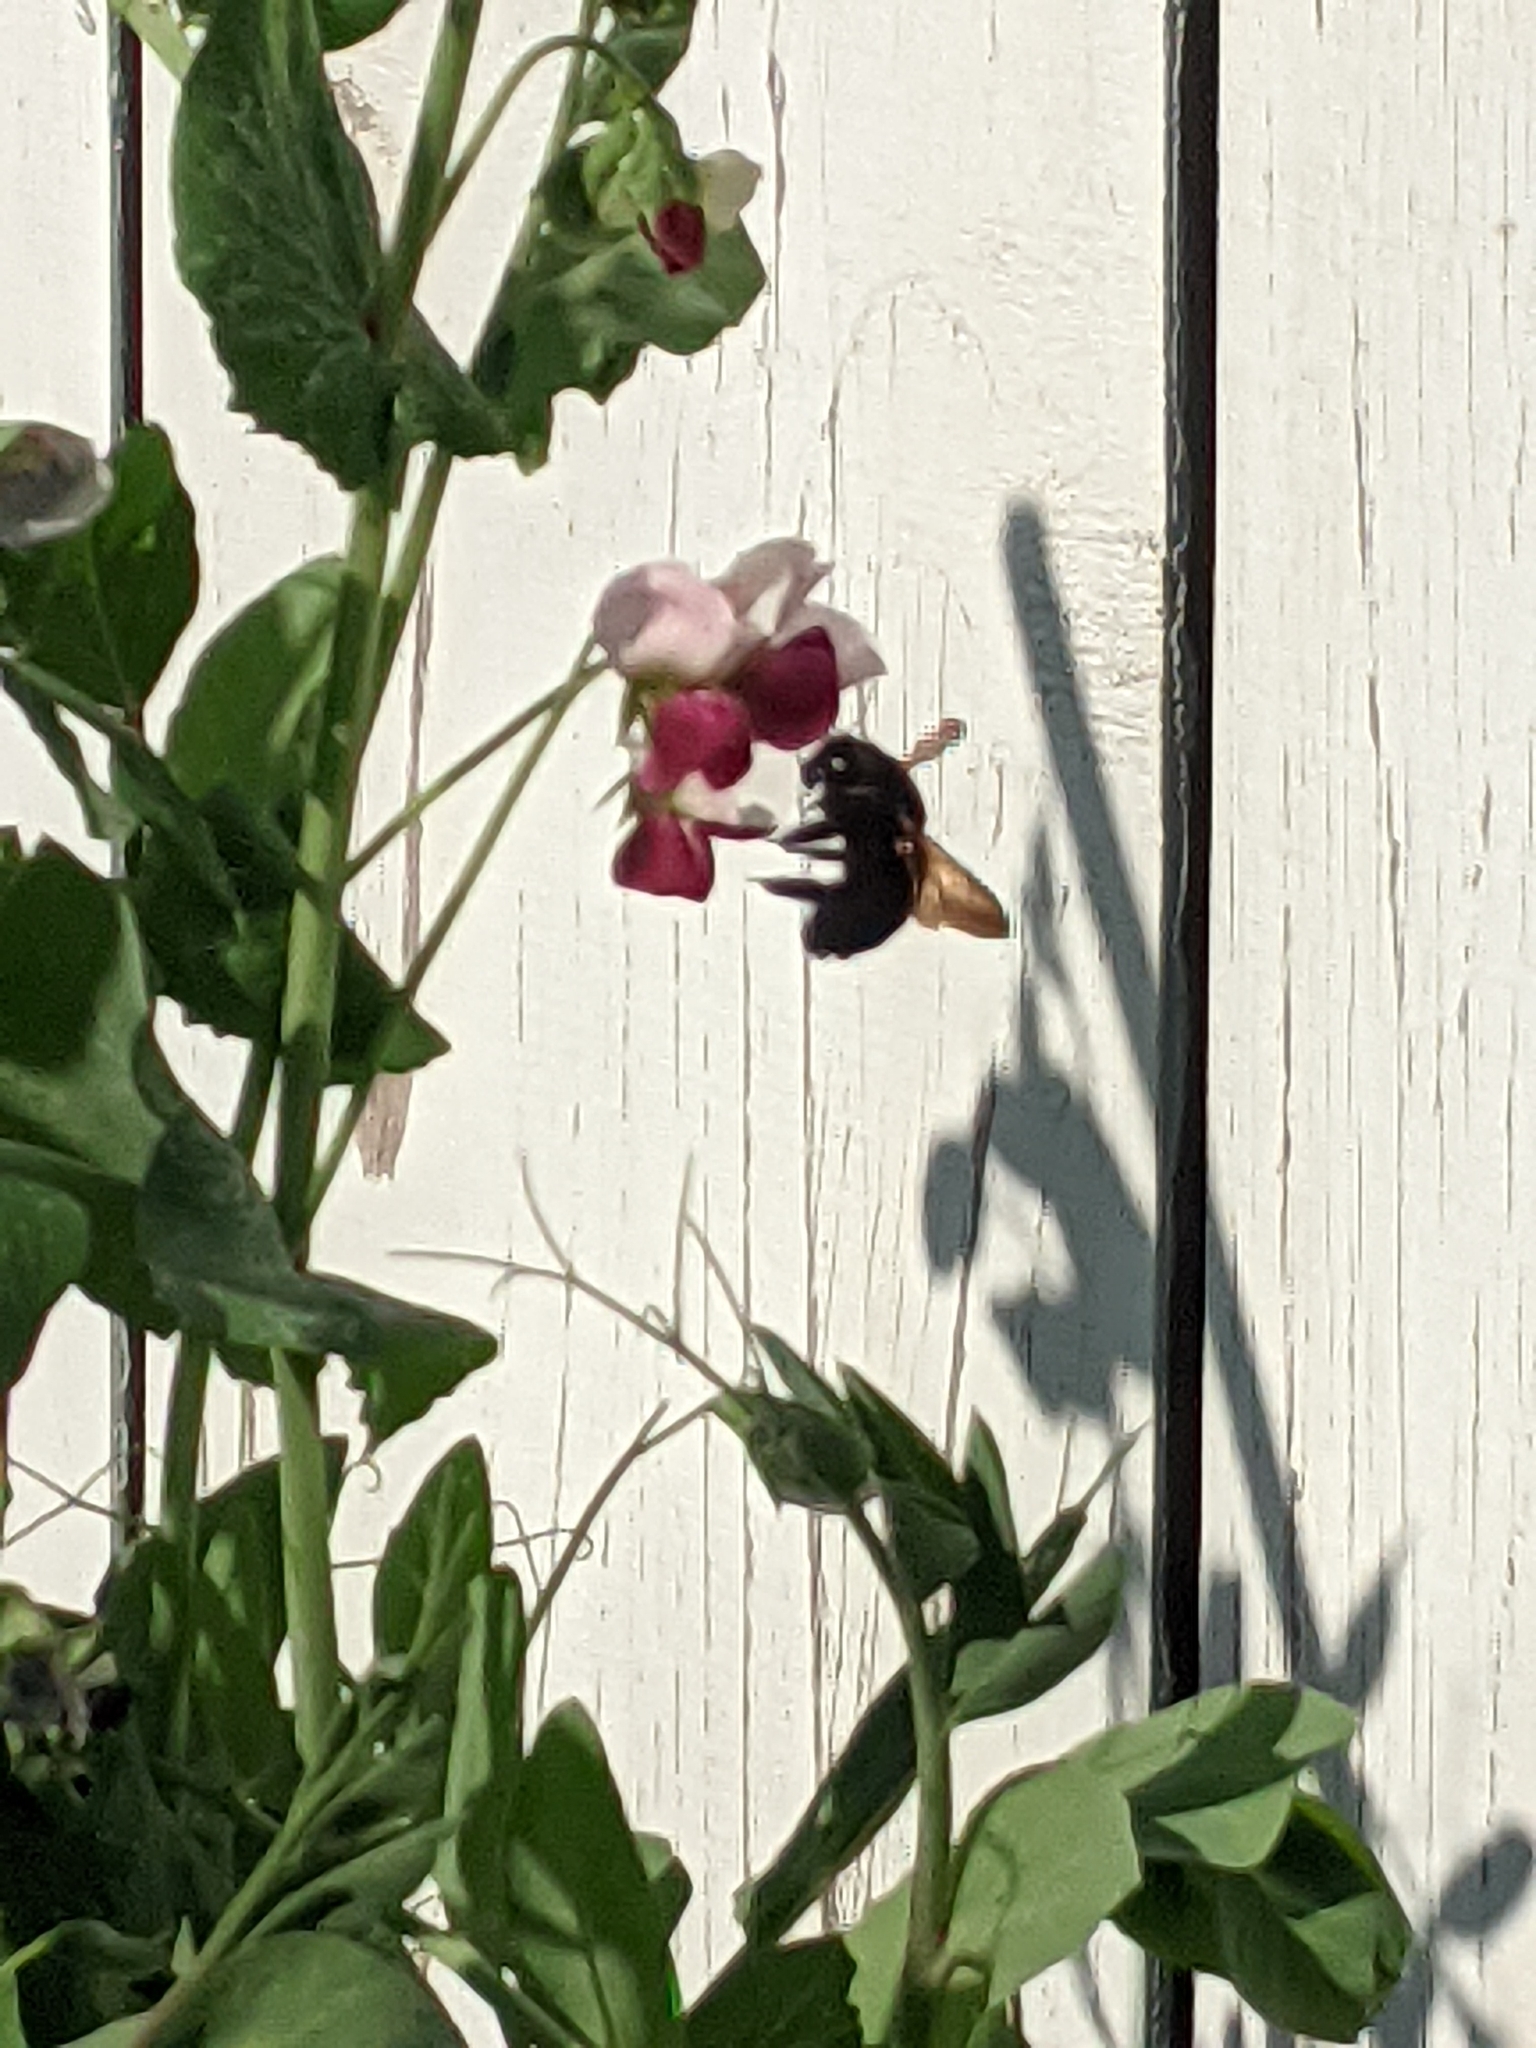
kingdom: Animalia
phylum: Arthropoda
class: Insecta
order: Hymenoptera
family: Apidae
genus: Xylocopa
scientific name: Xylocopa sonorina
